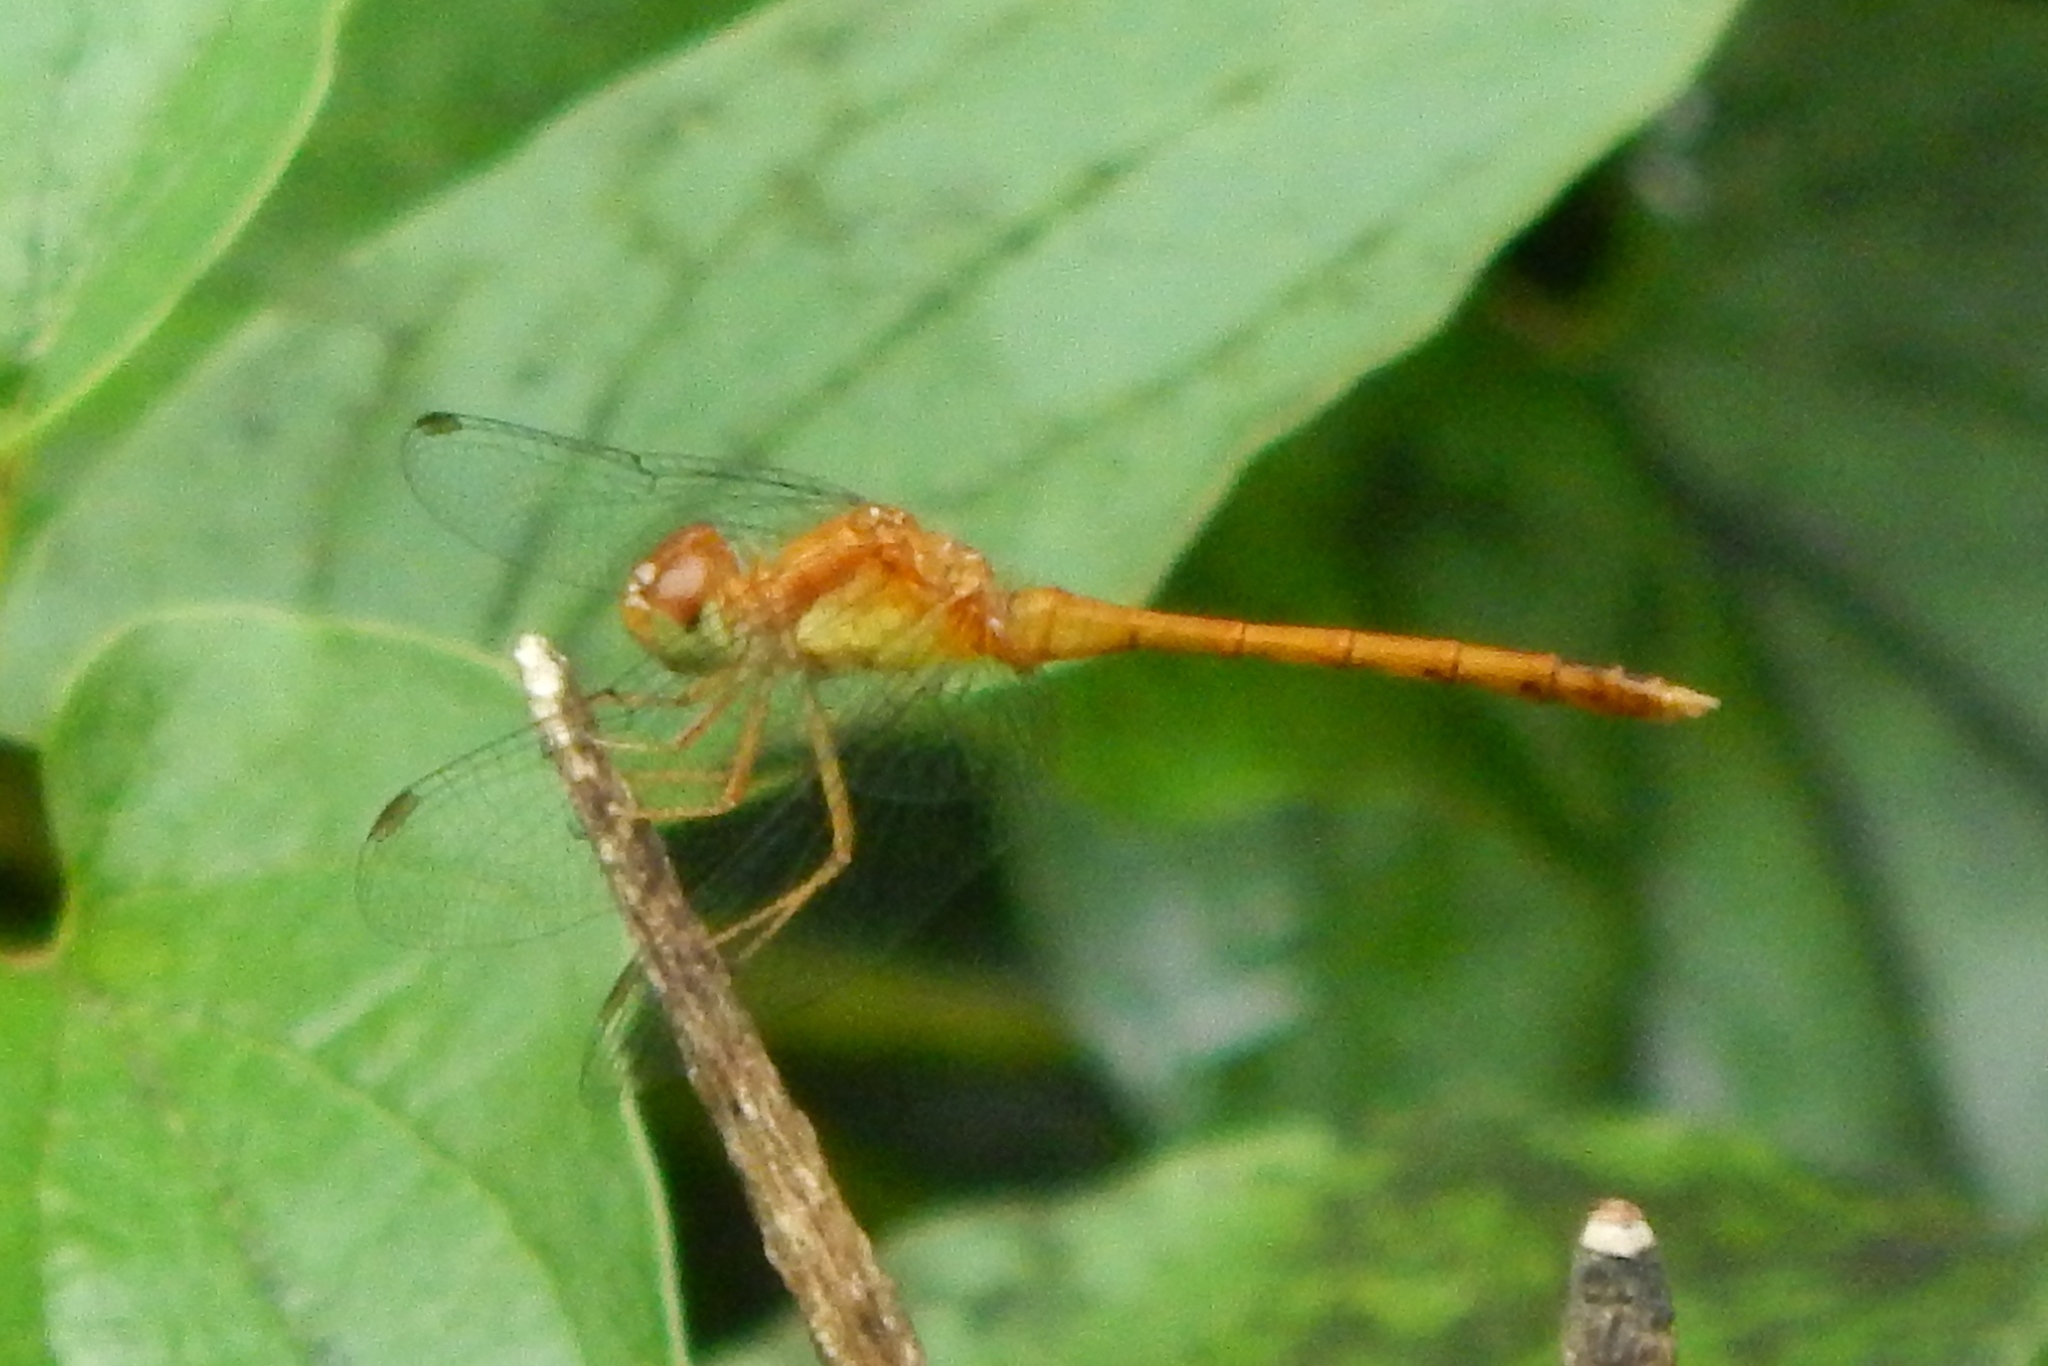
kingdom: Animalia
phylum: Arthropoda
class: Insecta
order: Odonata
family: Libellulidae
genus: Sympetrum
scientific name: Sympetrum vicinum
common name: Autumn meadowhawk
